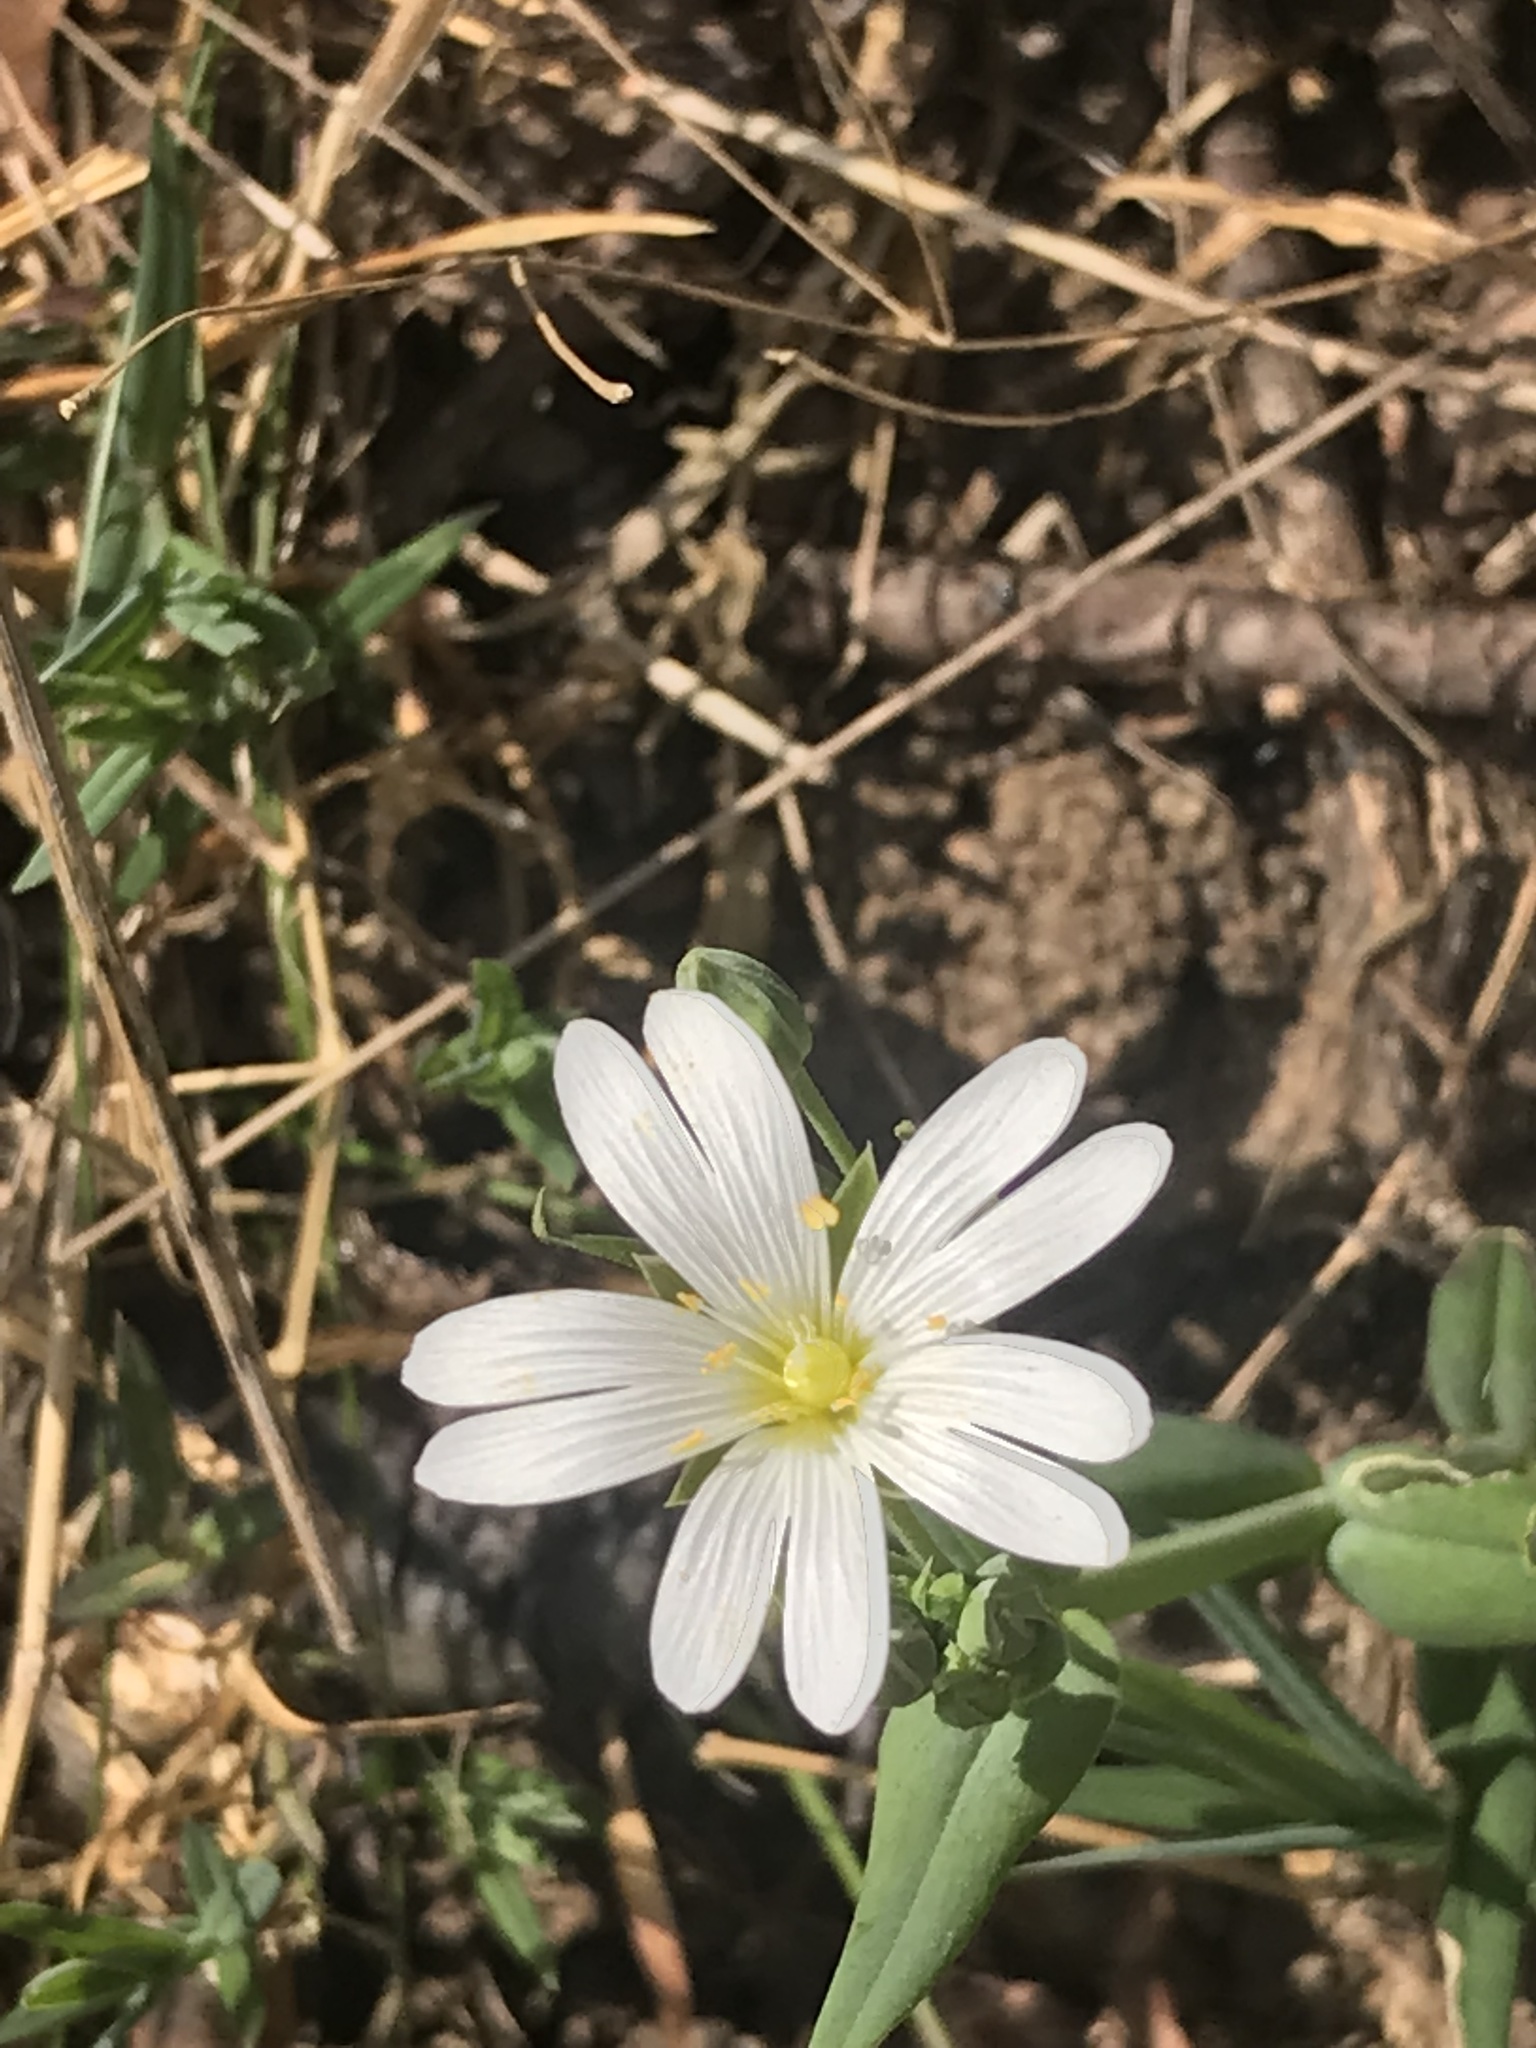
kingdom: Plantae
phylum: Tracheophyta
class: Magnoliopsida
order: Caryophyllales
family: Caryophyllaceae
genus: Rabelera
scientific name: Rabelera holostea
